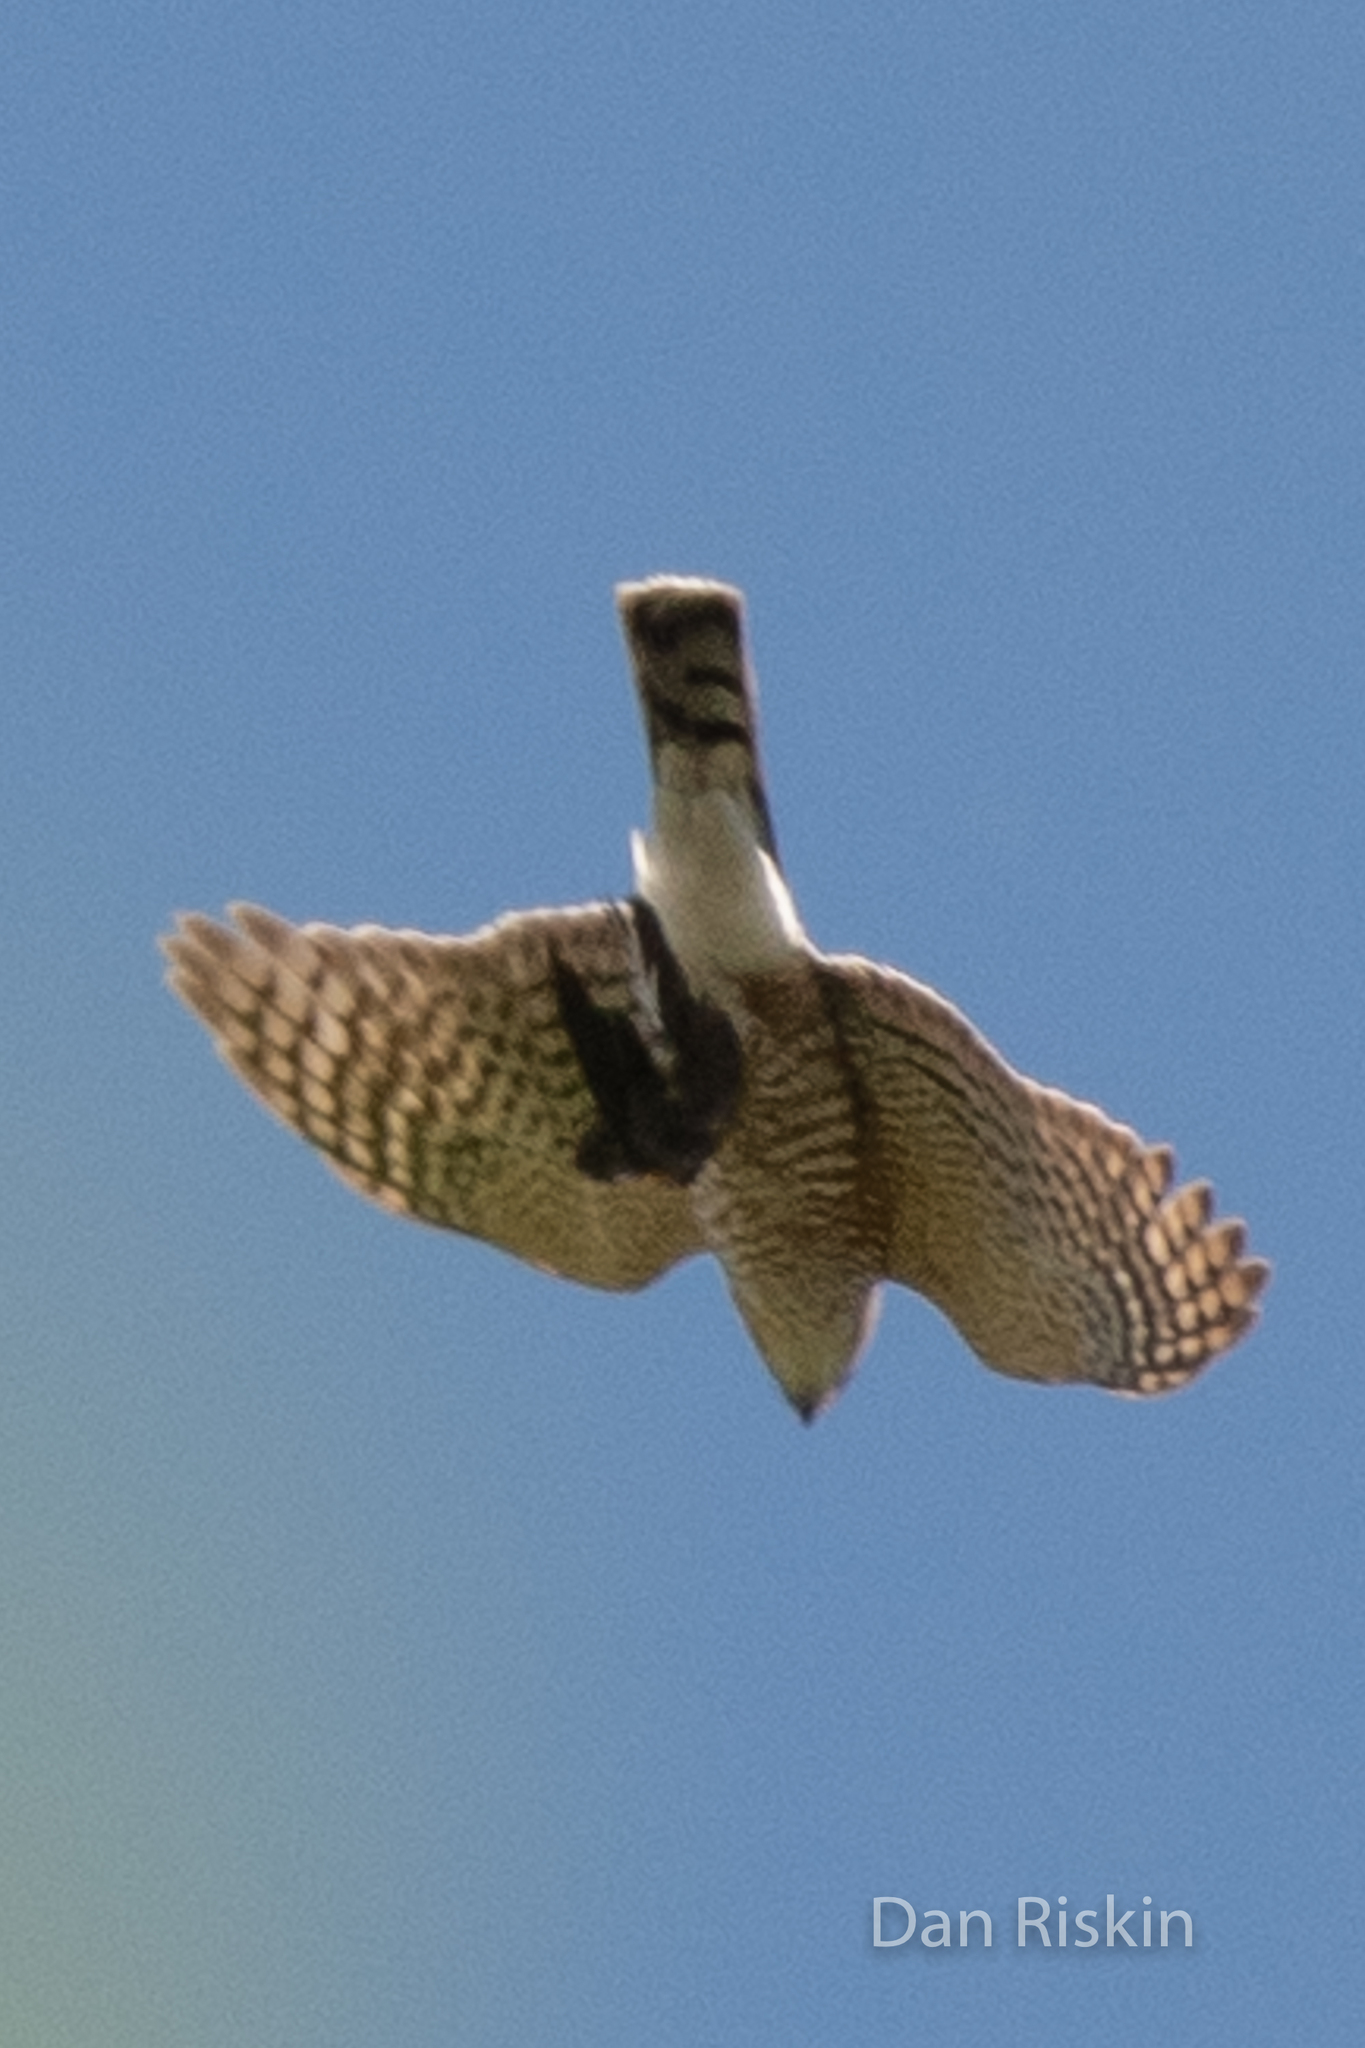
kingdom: Animalia
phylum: Chordata
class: Aves
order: Accipitriformes
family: Accipitridae
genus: Accipiter
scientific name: Accipiter striatus
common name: Sharp-shinned hawk
